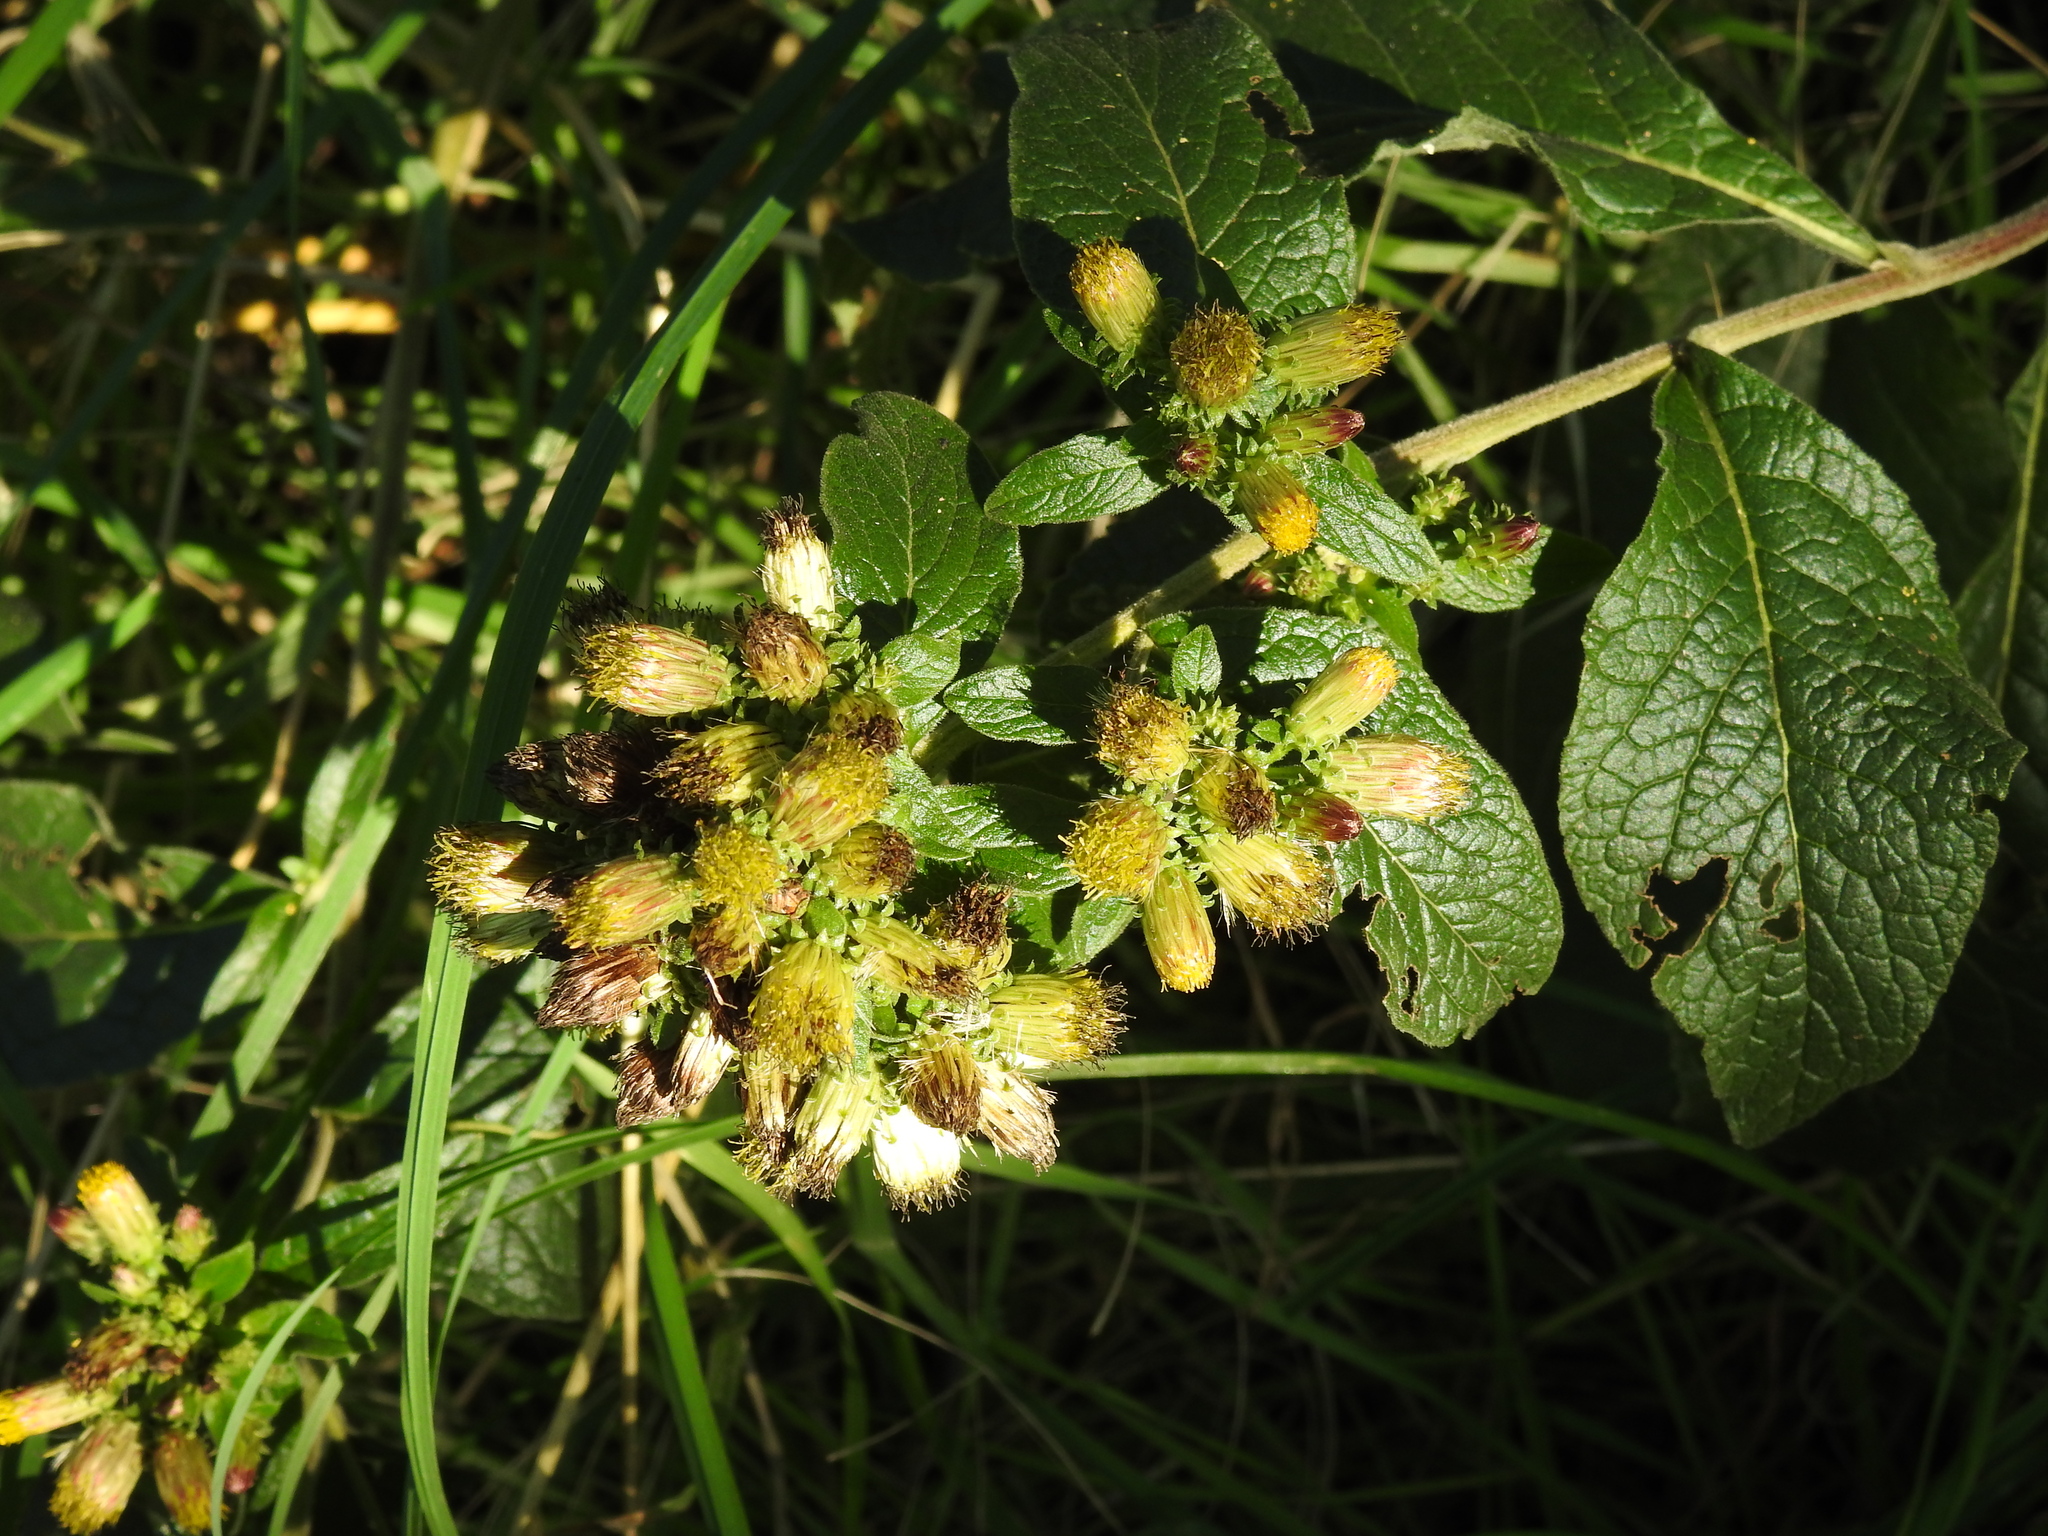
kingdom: Plantae
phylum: Tracheophyta
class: Magnoliopsida
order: Asterales
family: Asteraceae
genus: Pentanema
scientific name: Pentanema squarrosum
